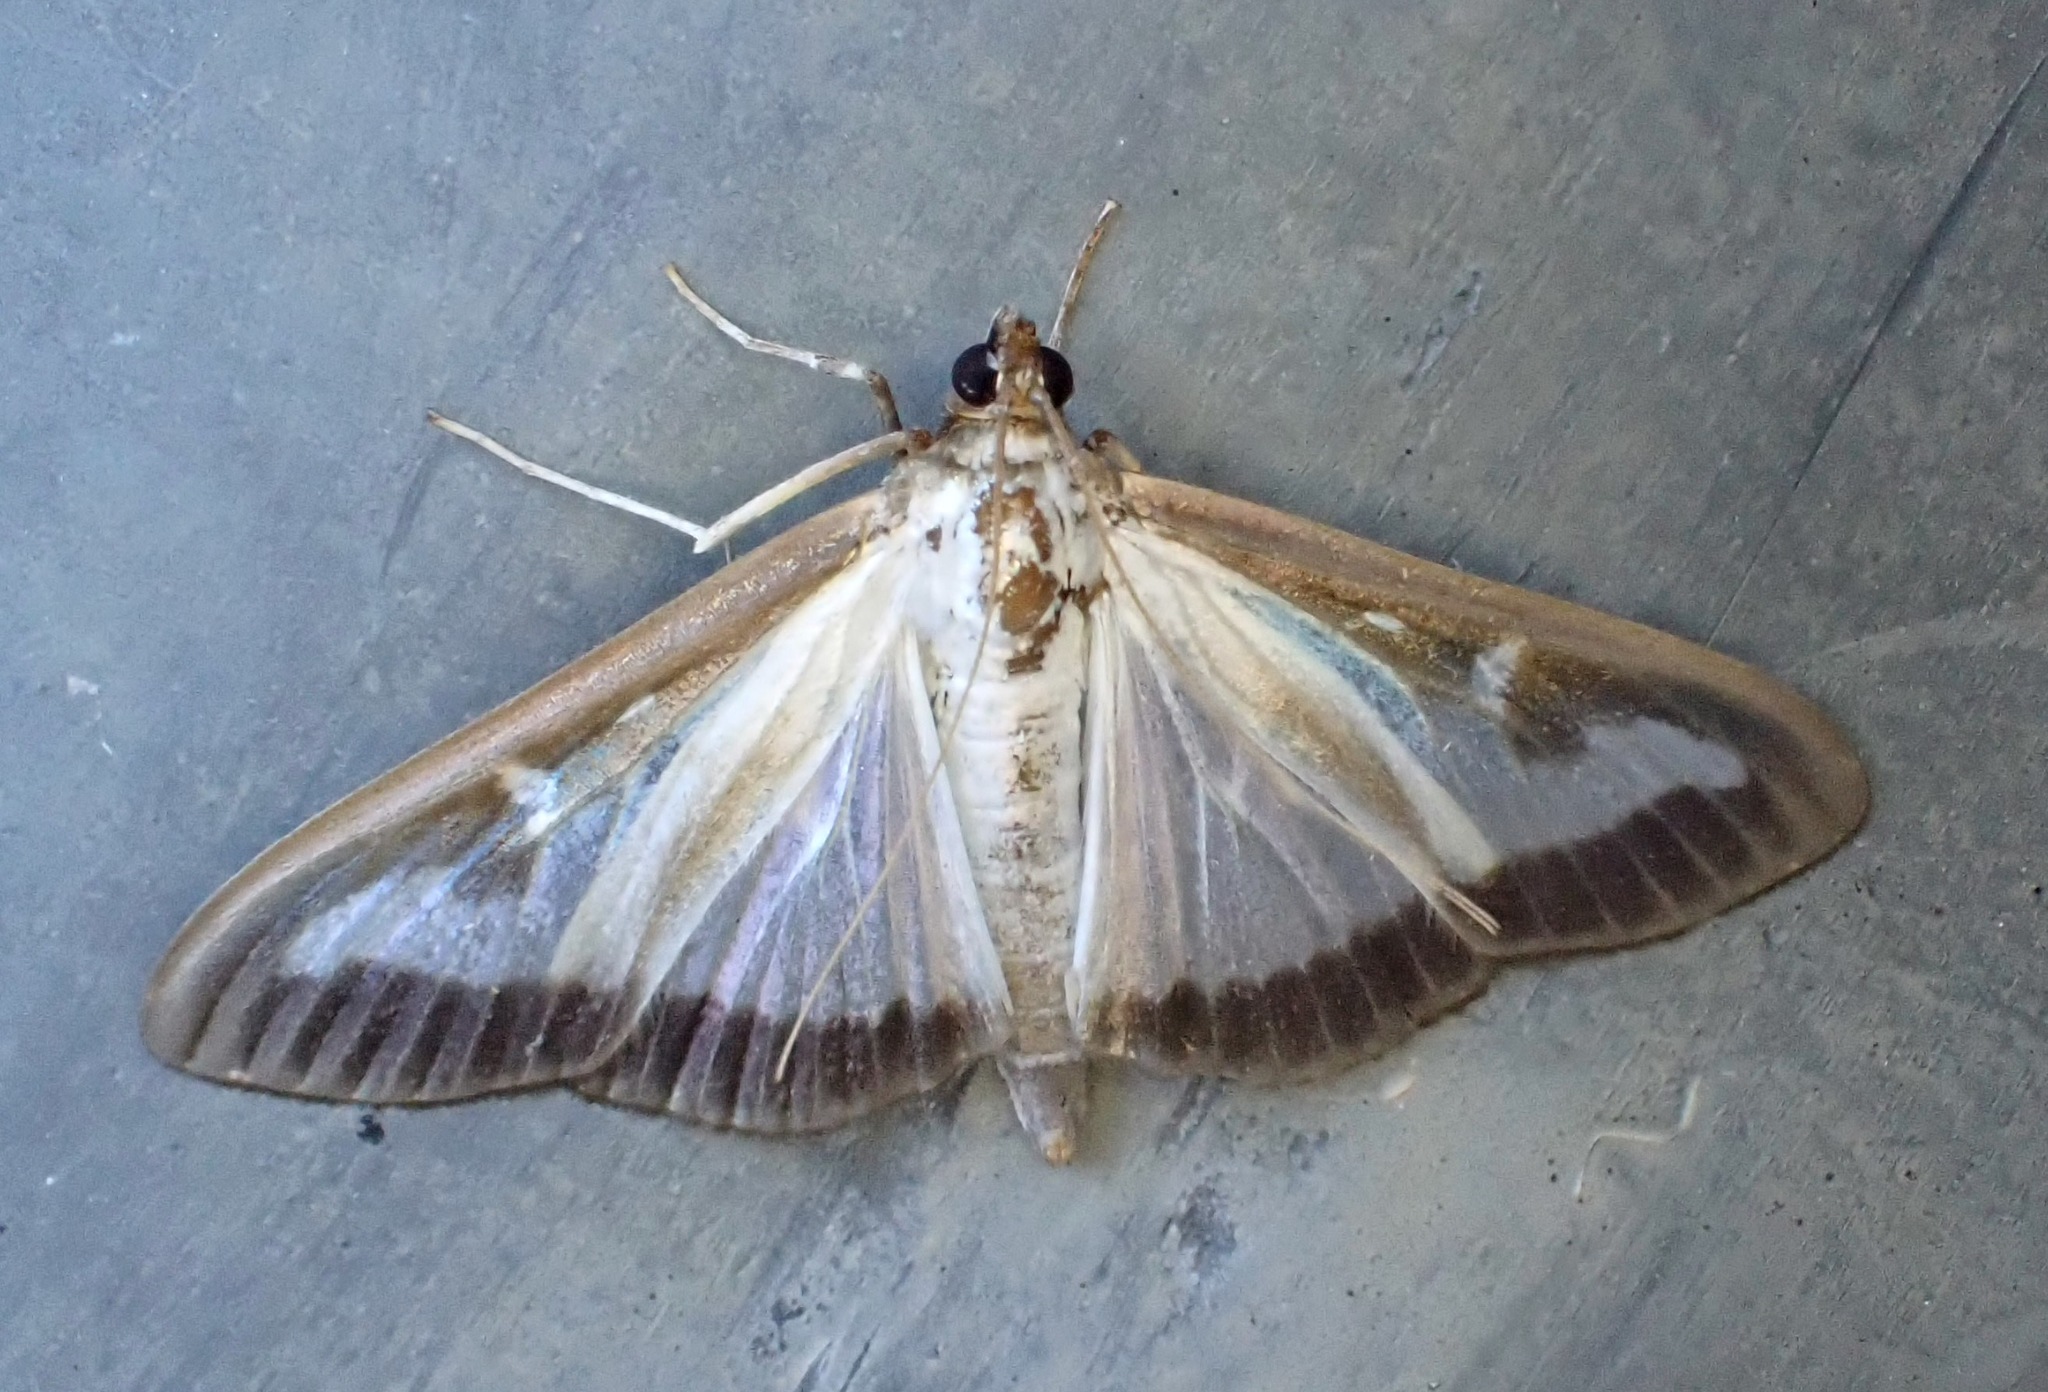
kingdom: Animalia
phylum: Arthropoda
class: Insecta
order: Lepidoptera
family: Crambidae
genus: Cydalima
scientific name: Cydalima perspectalis
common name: Box tree moth
